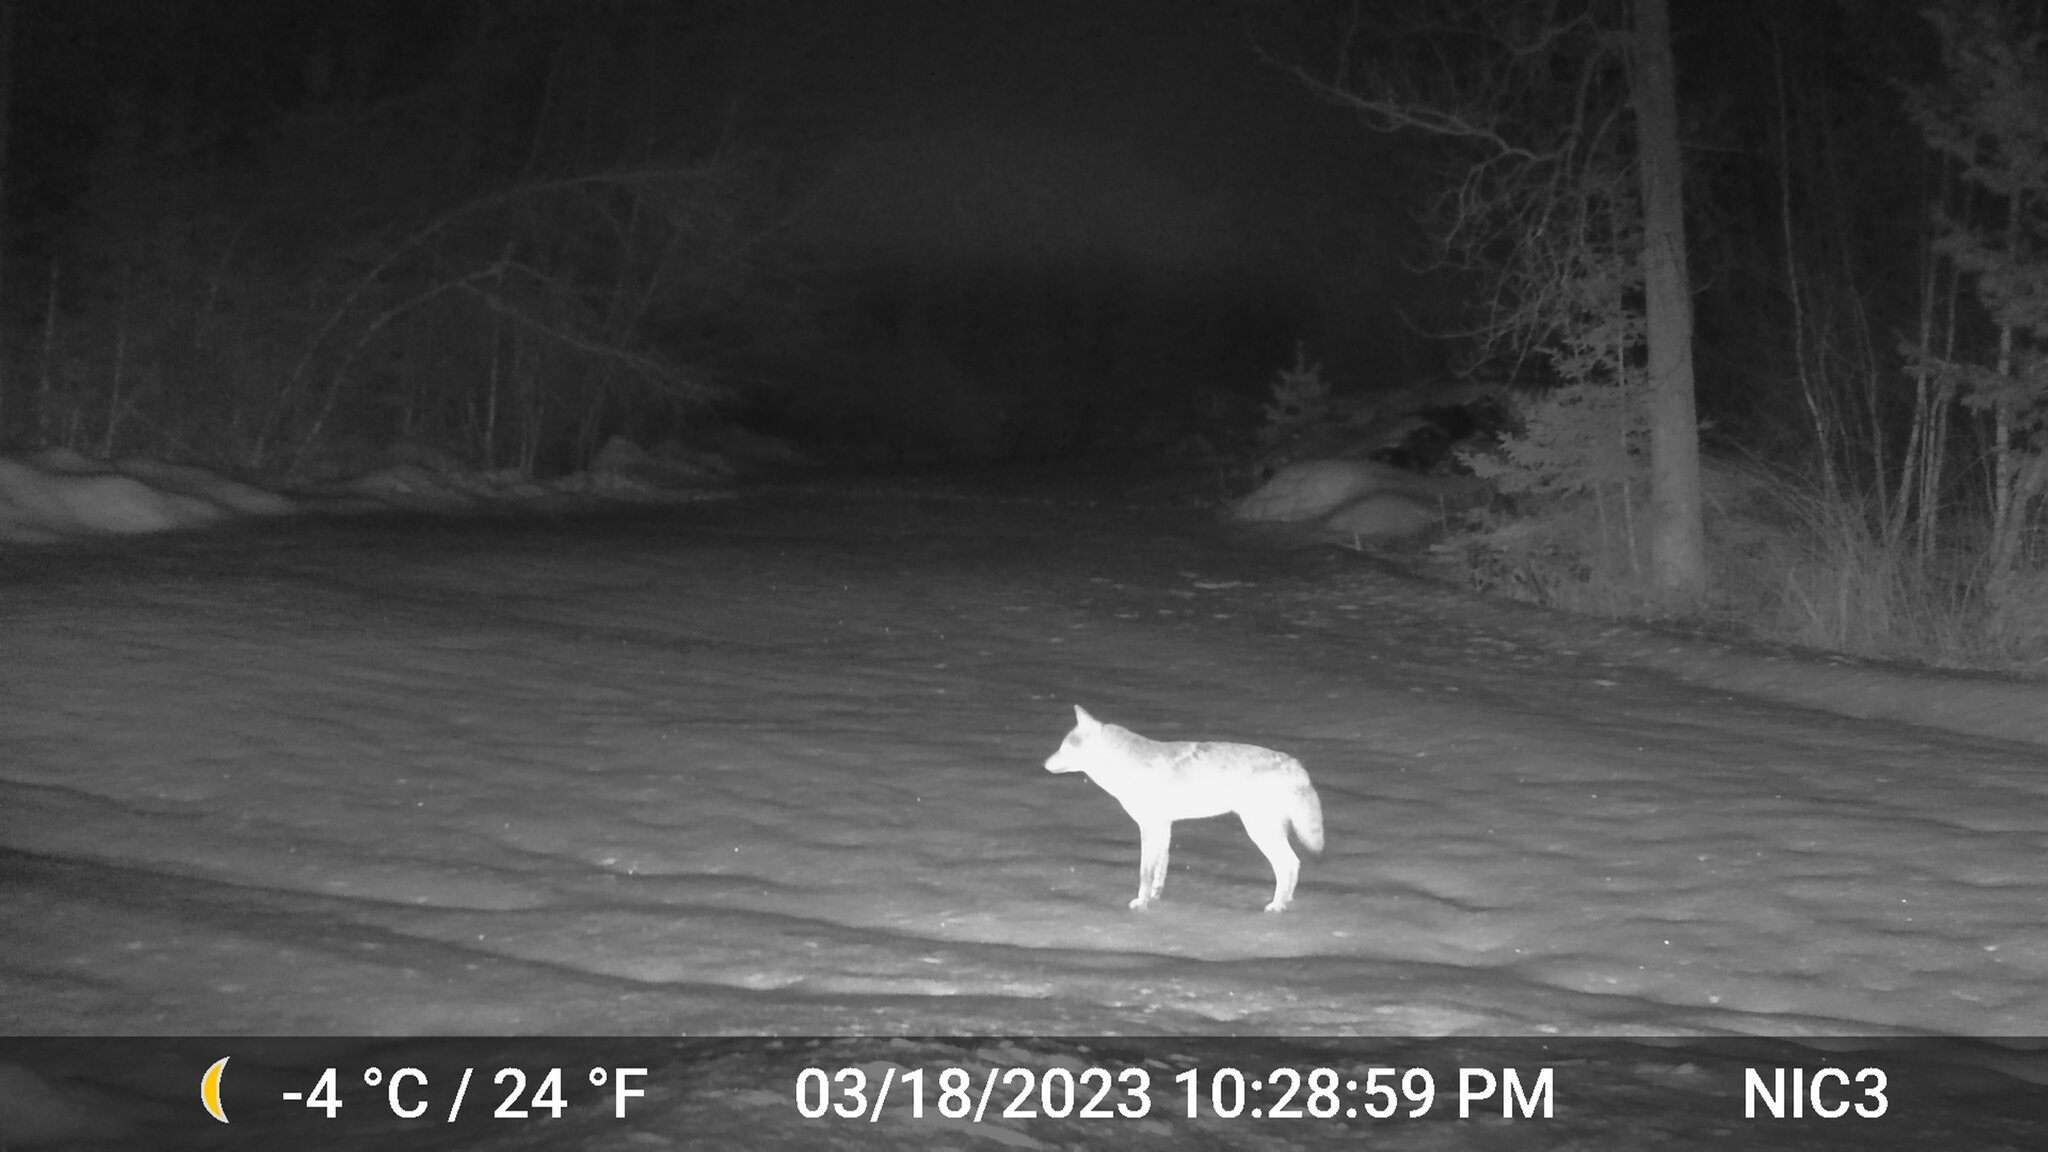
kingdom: Animalia
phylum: Chordata
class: Mammalia
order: Carnivora
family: Canidae
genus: Canis
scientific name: Canis latrans
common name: Coyote
